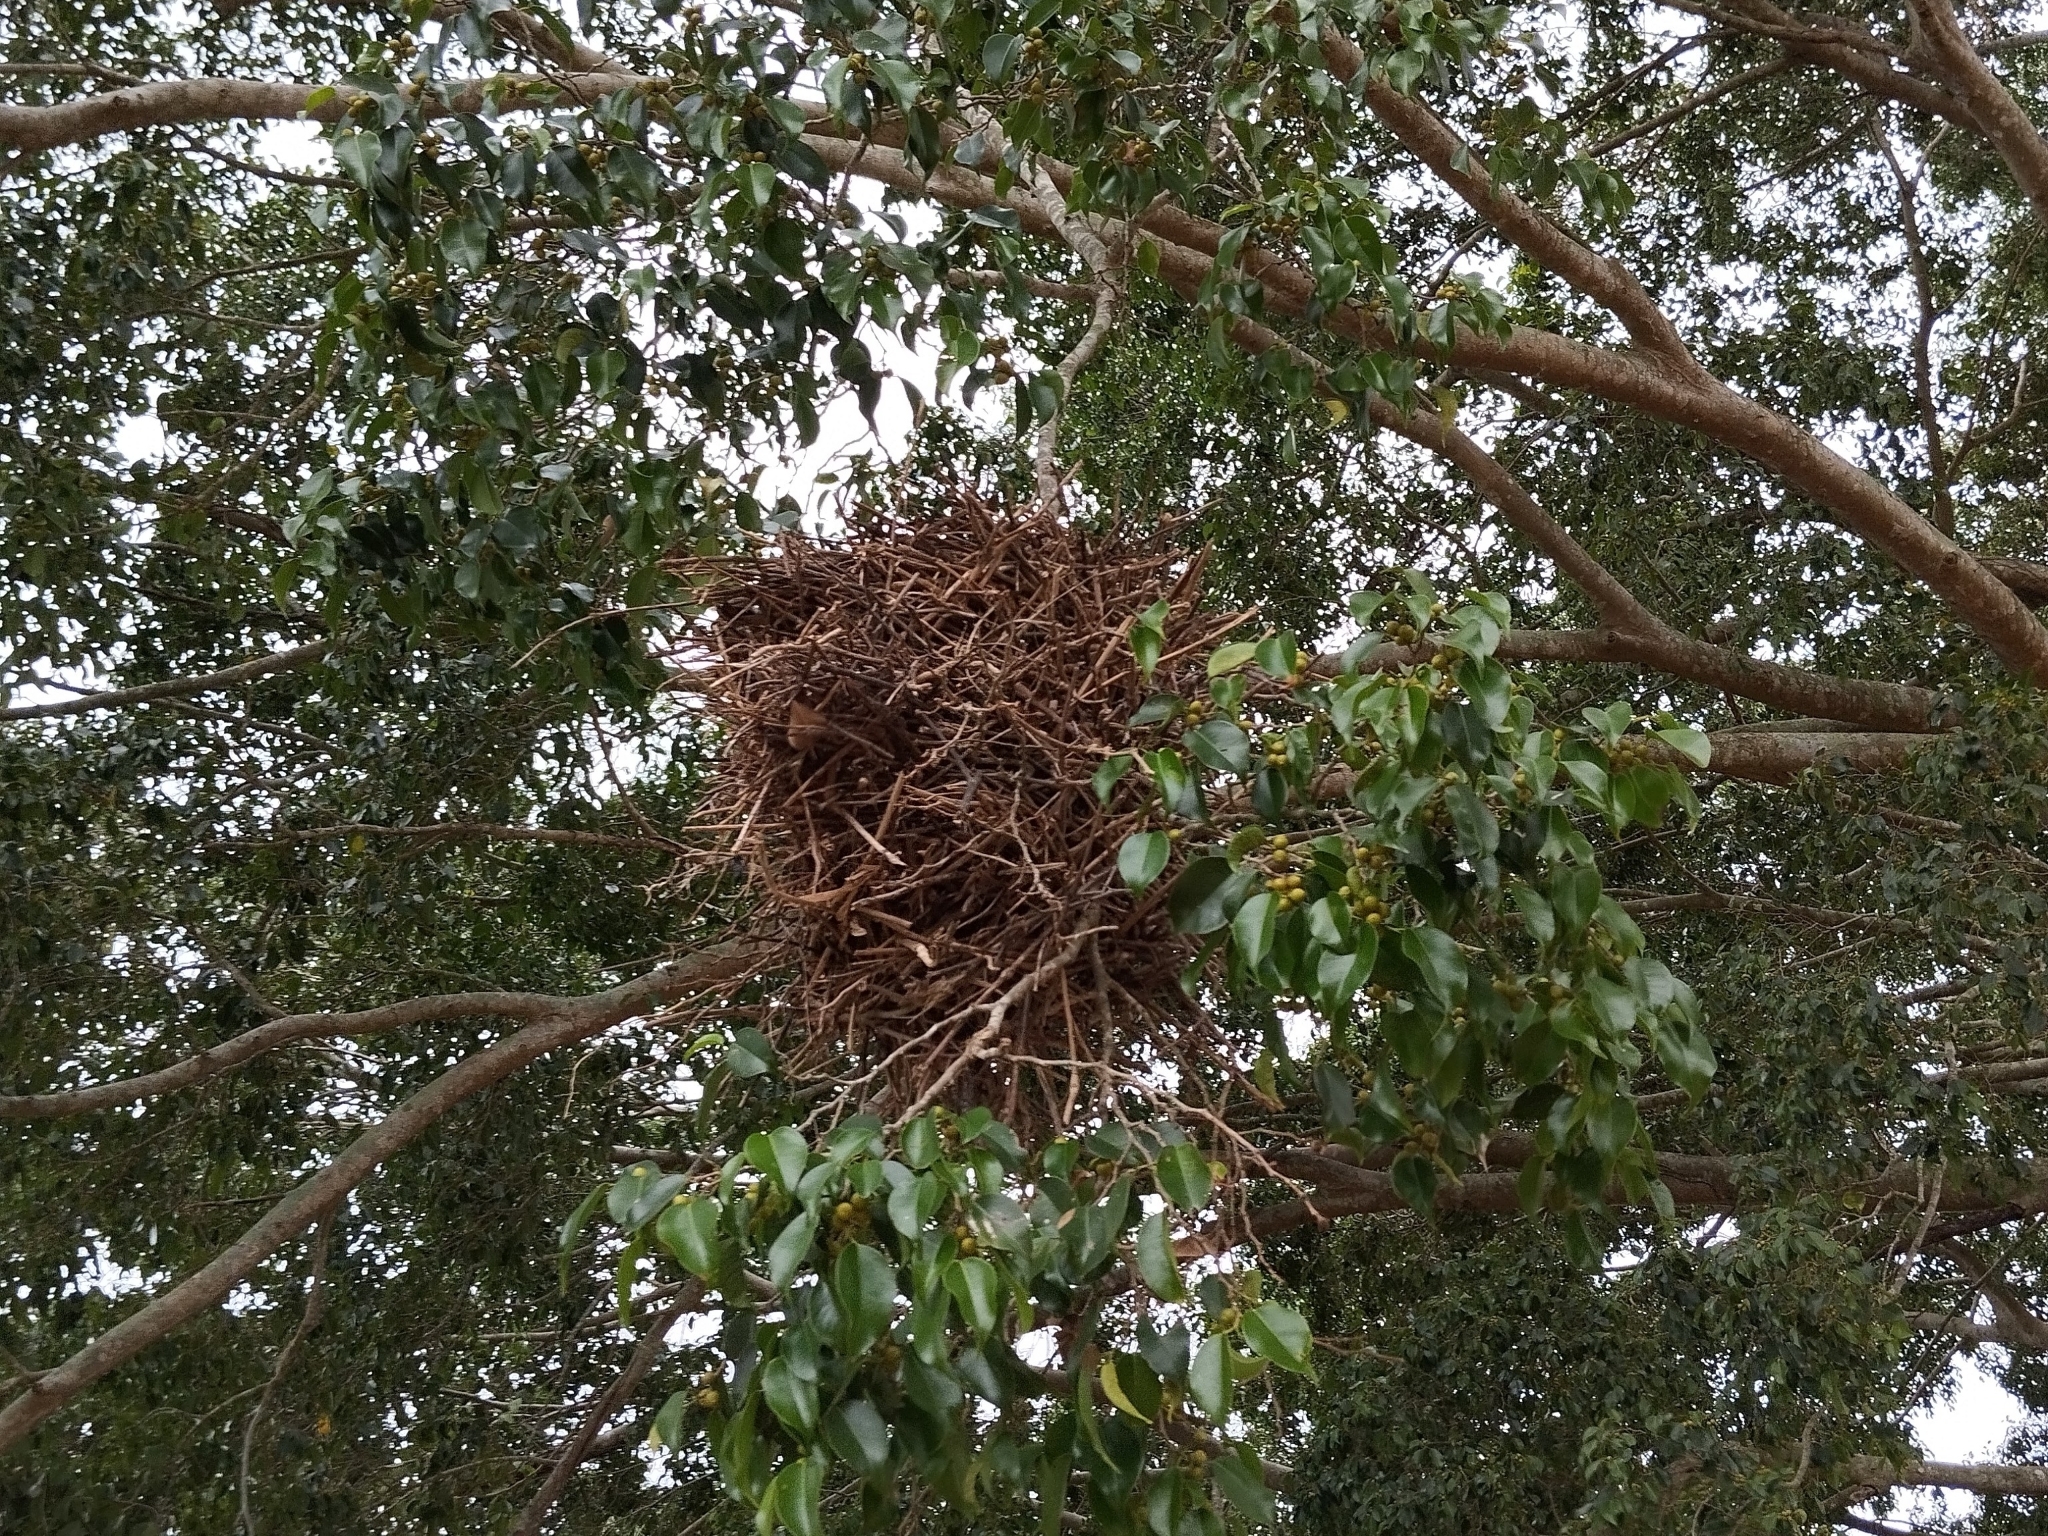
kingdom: Animalia
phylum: Chordata
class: Aves
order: Passeriformes
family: Tyrannidae
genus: Phaeomyias
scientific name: Phaeomyias murina
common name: Mouse-colored tyrannulet
